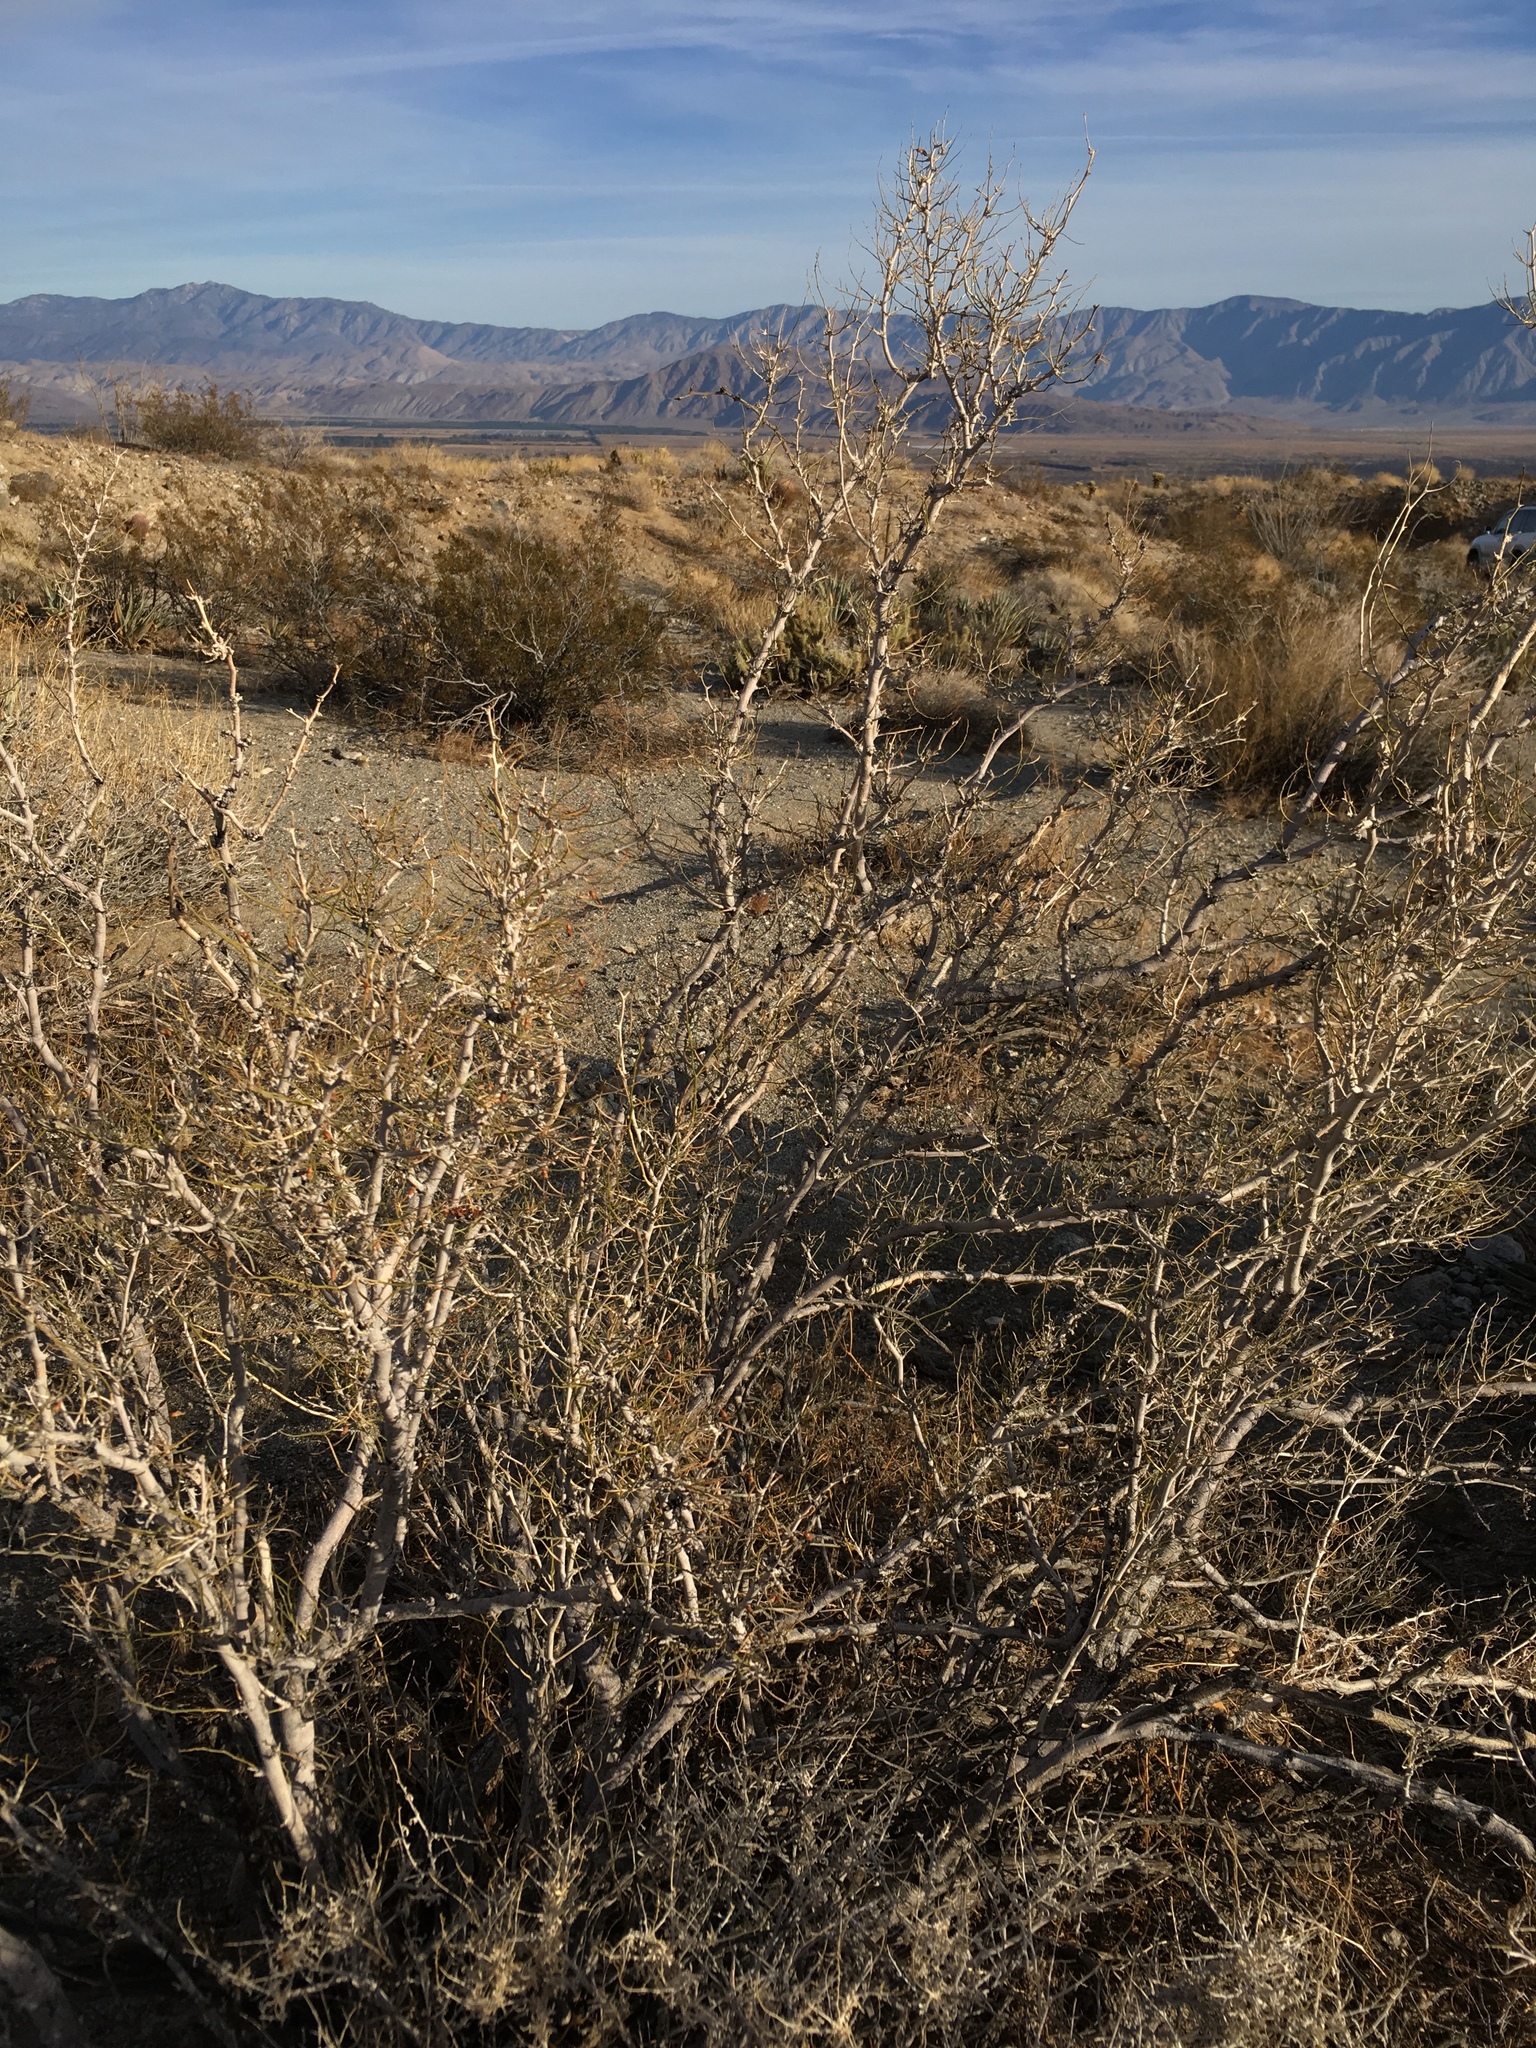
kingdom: Plantae
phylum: Tracheophyta
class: Magnoliopsida
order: Fabales
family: Fabaceae
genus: Psorothamnus
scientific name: Psorothamnus schottii
